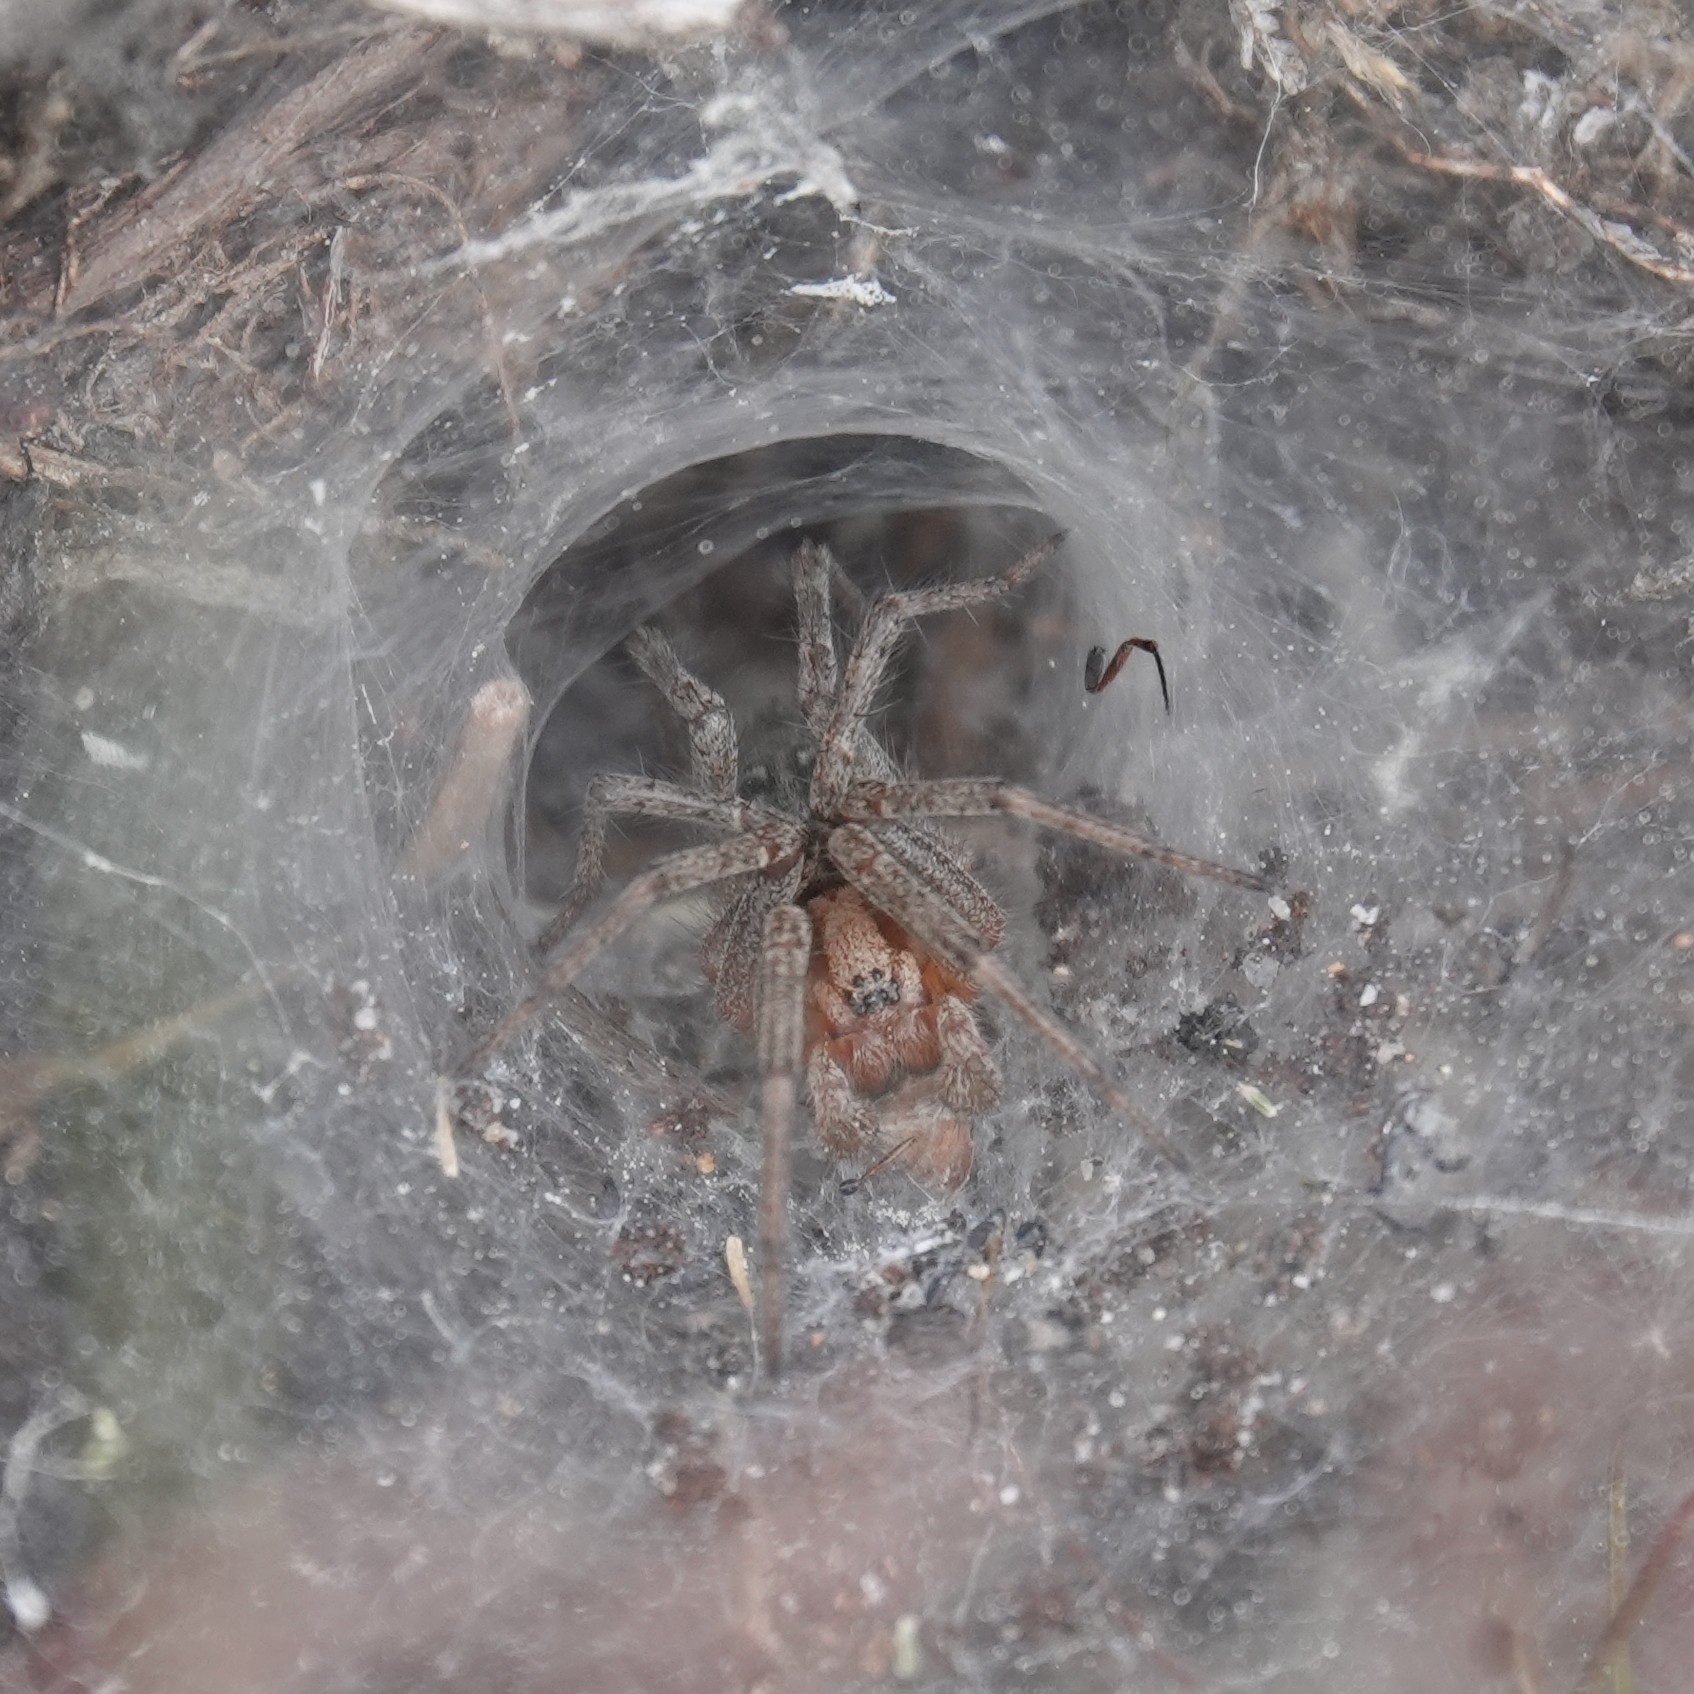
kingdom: Animalia
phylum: Arthropoda
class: Arachnida
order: Araneae
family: Agelenidae
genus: Agelena
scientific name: Agelena labyrinthica
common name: Labyrinth spider
